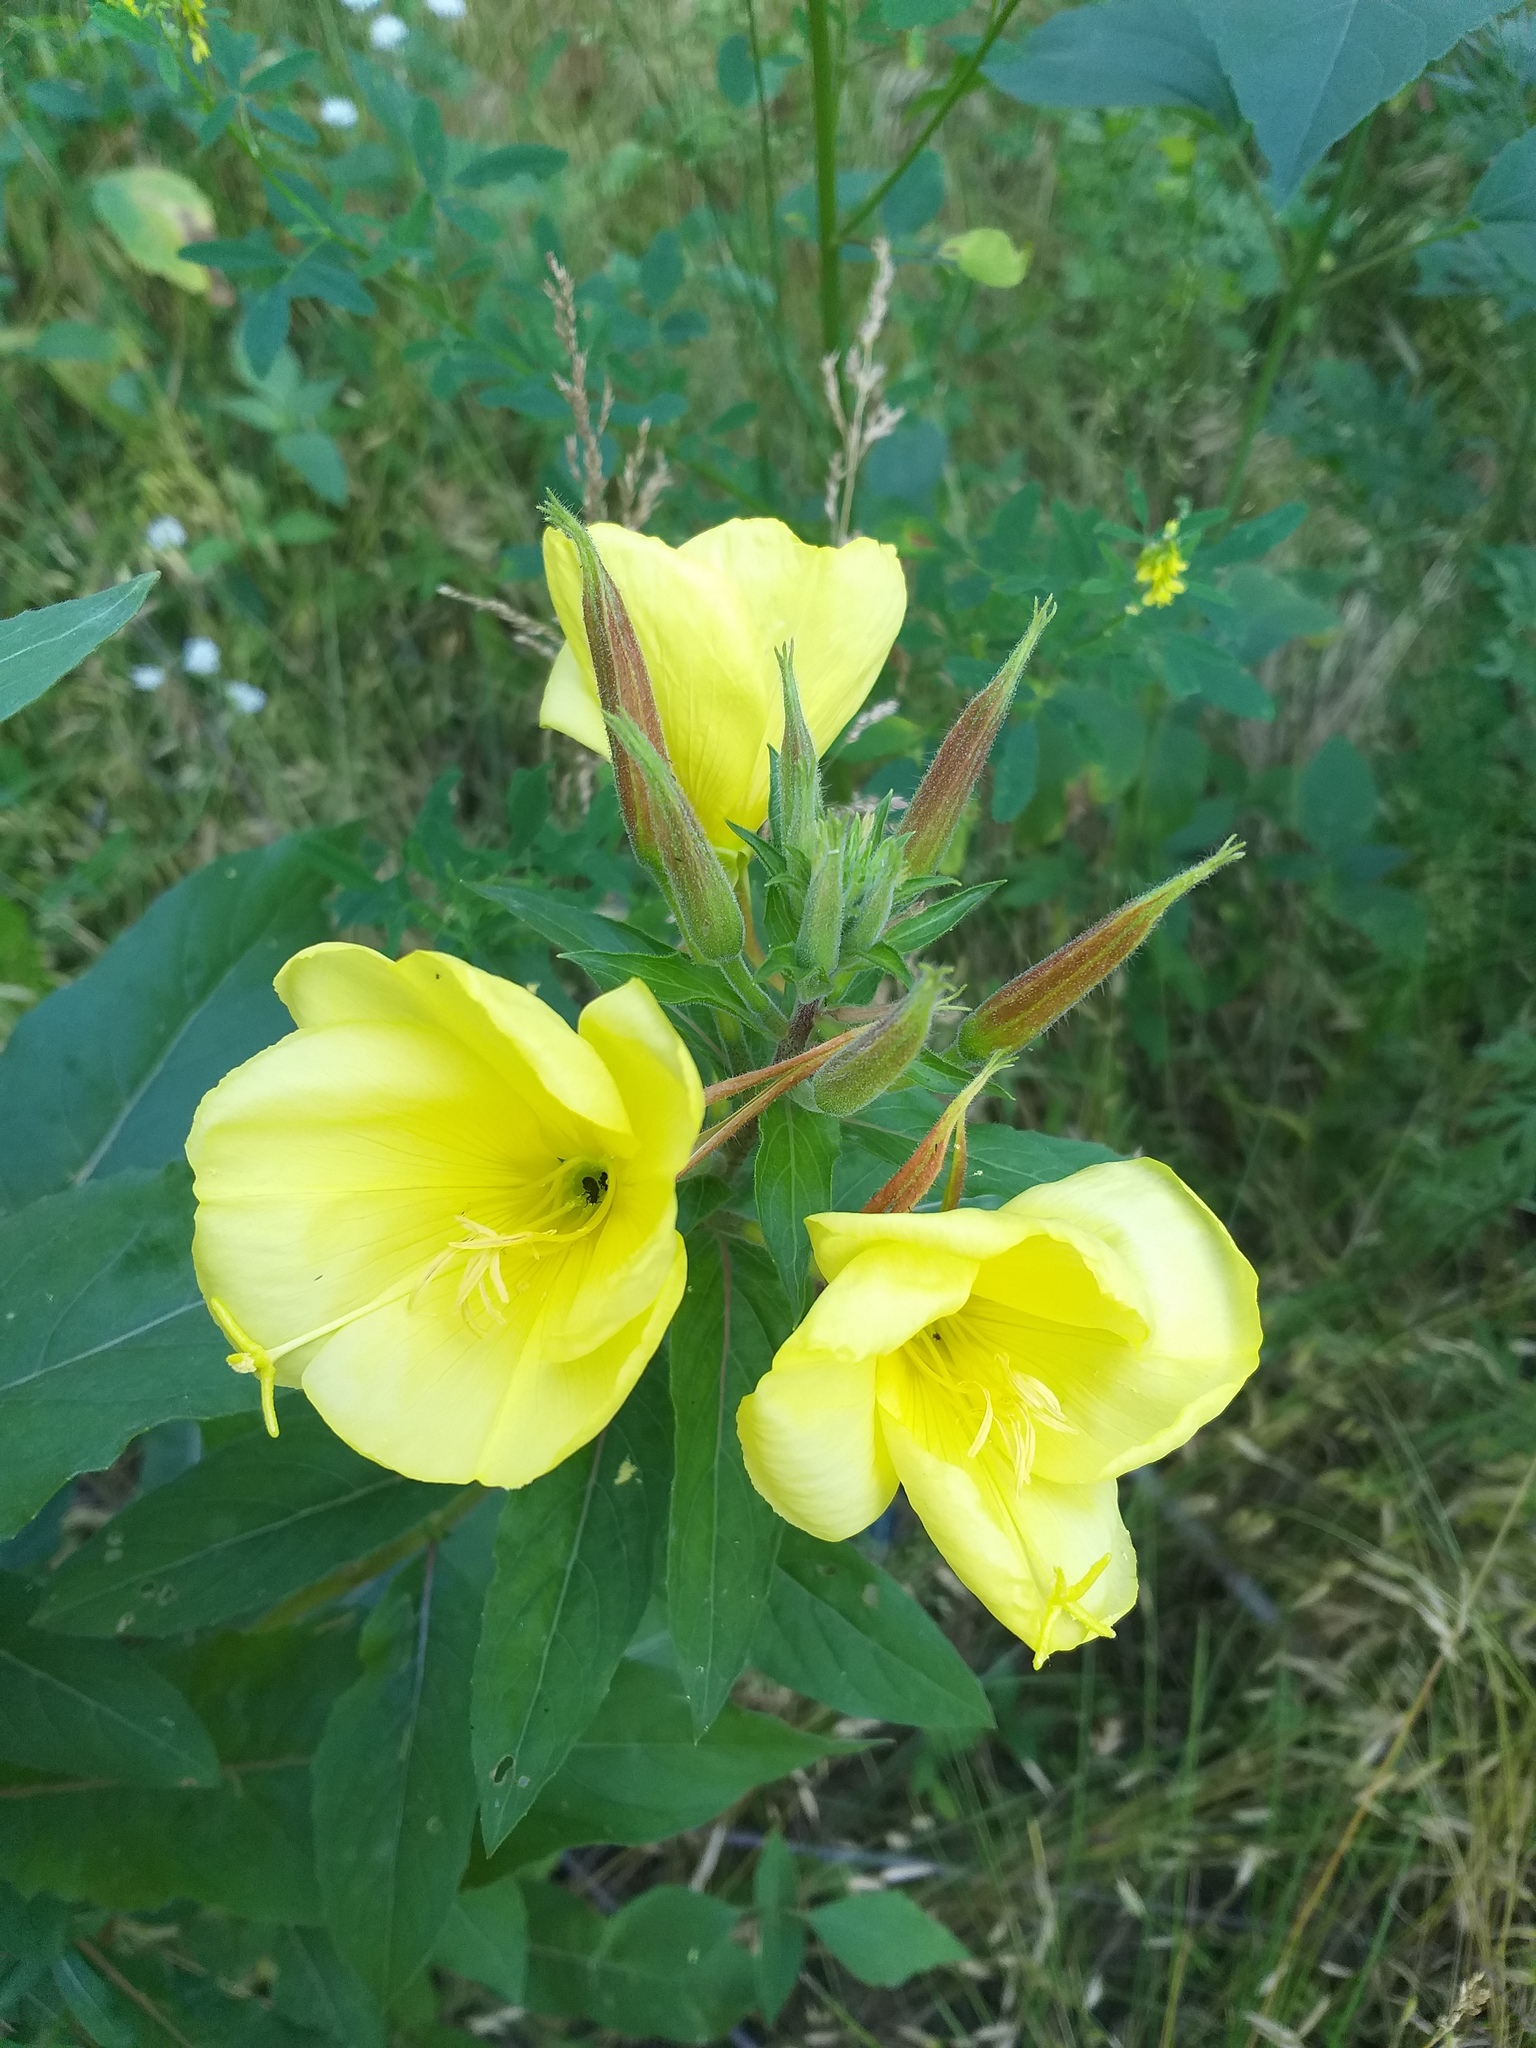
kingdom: Plantae
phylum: Tracheophyta
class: Magnoliopsida
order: Myrtales
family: Onagraceae
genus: Oenothera
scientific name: Oenothera glazioviana
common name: Large-flowered evening-primrose
